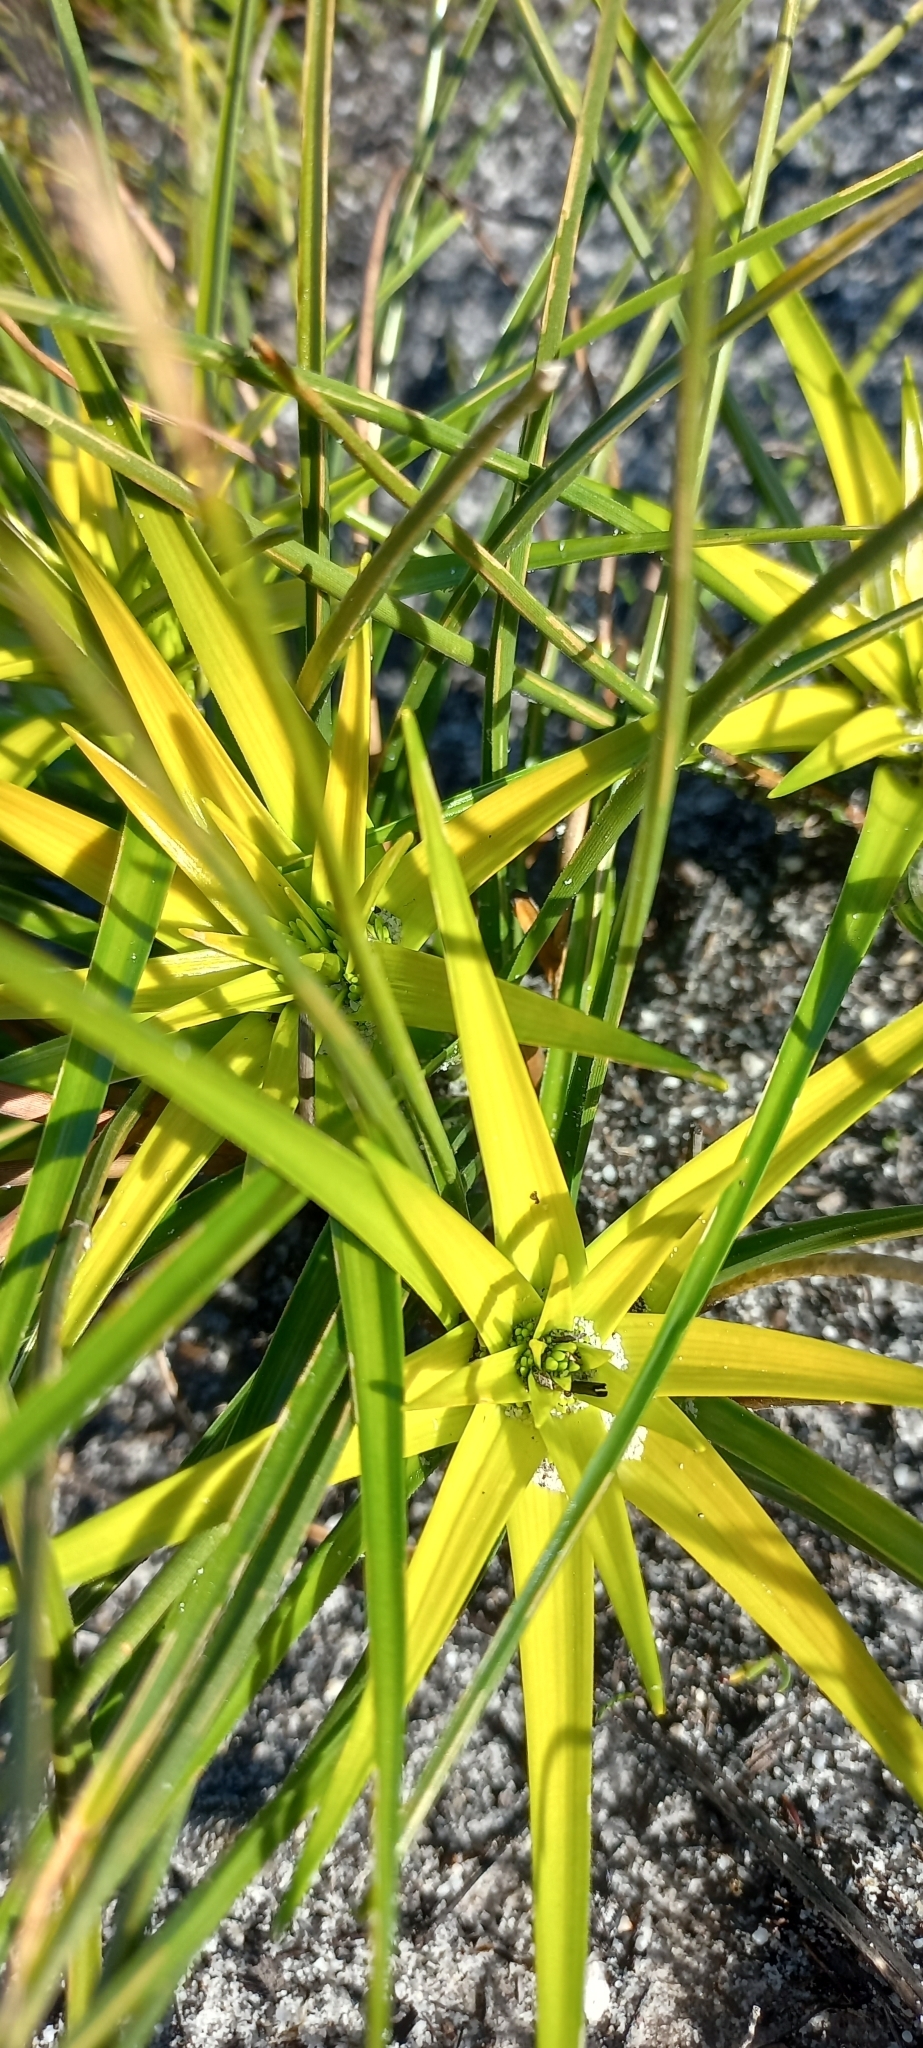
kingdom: Plantae
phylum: Tracheophyta
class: Liliopsida
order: Poales
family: Cyperaceae
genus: Ficinia
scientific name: Ficinia radiata
